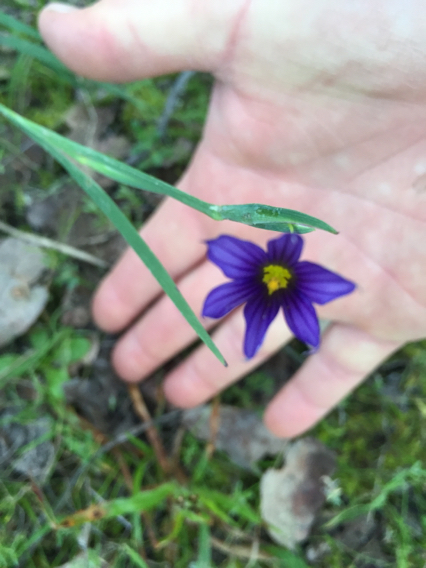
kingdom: Plantae
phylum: Tracheophyta
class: Liliopsida
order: Asparagales
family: Iridaceae
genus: Sisyrinchium
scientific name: Sisyrinchium bellum
